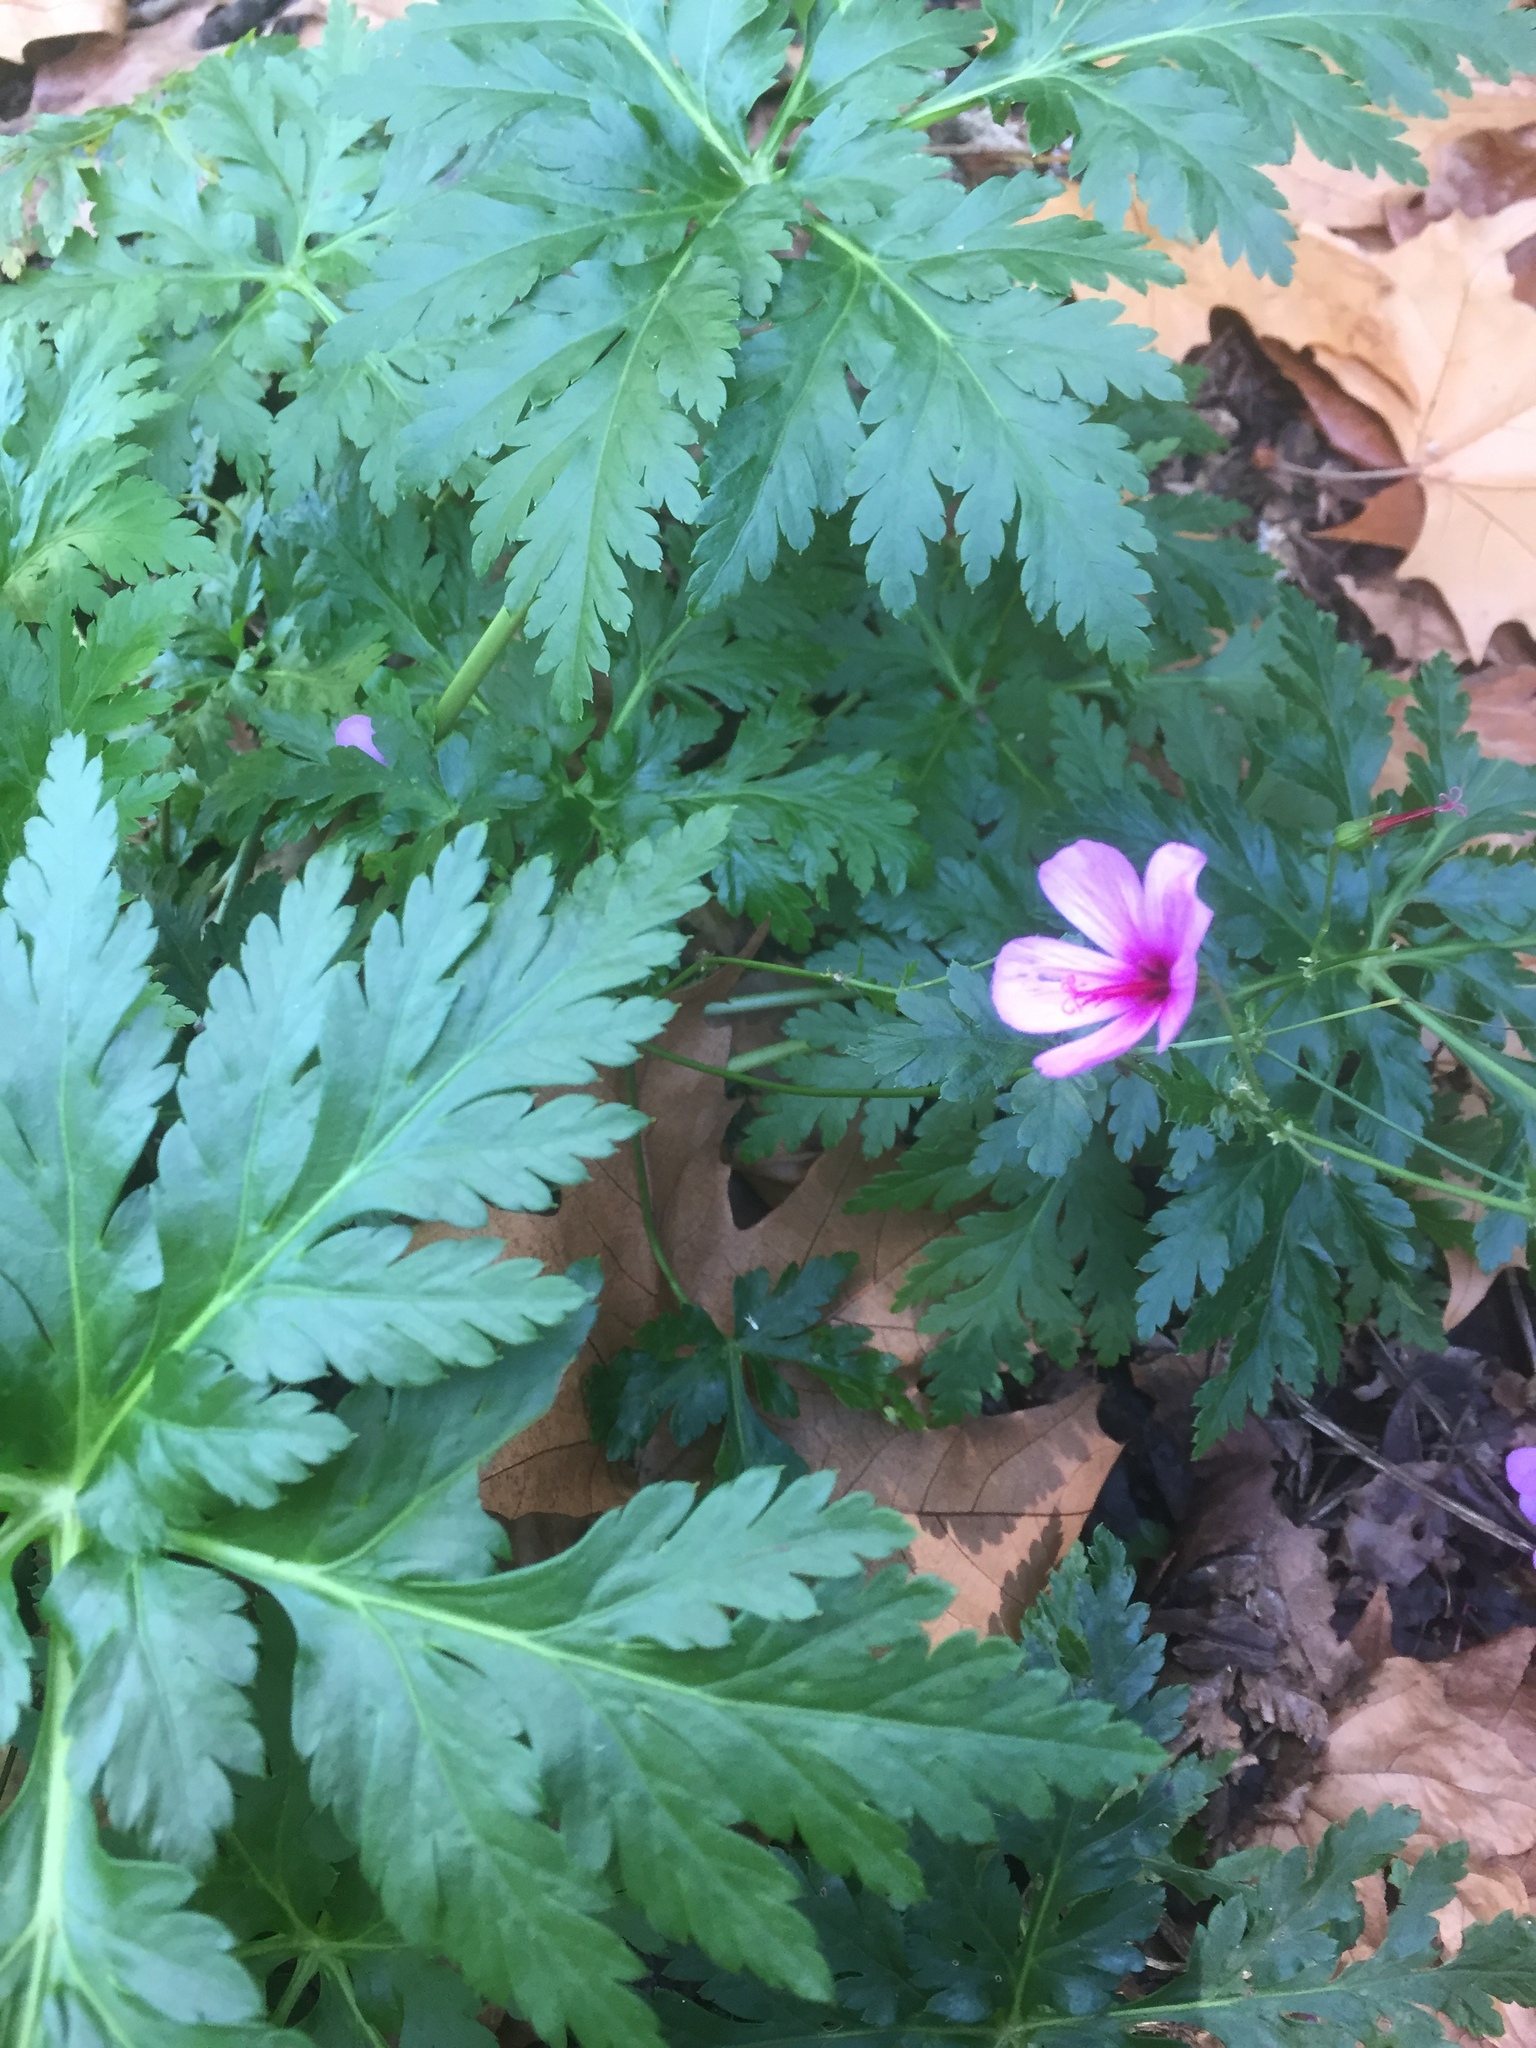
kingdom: Plantae
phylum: Tracheophyta
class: Magnoliopsida
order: Geraniales
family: Geraniaceae
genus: Geranium
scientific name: Geranium palmatum
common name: Canary island geranium
